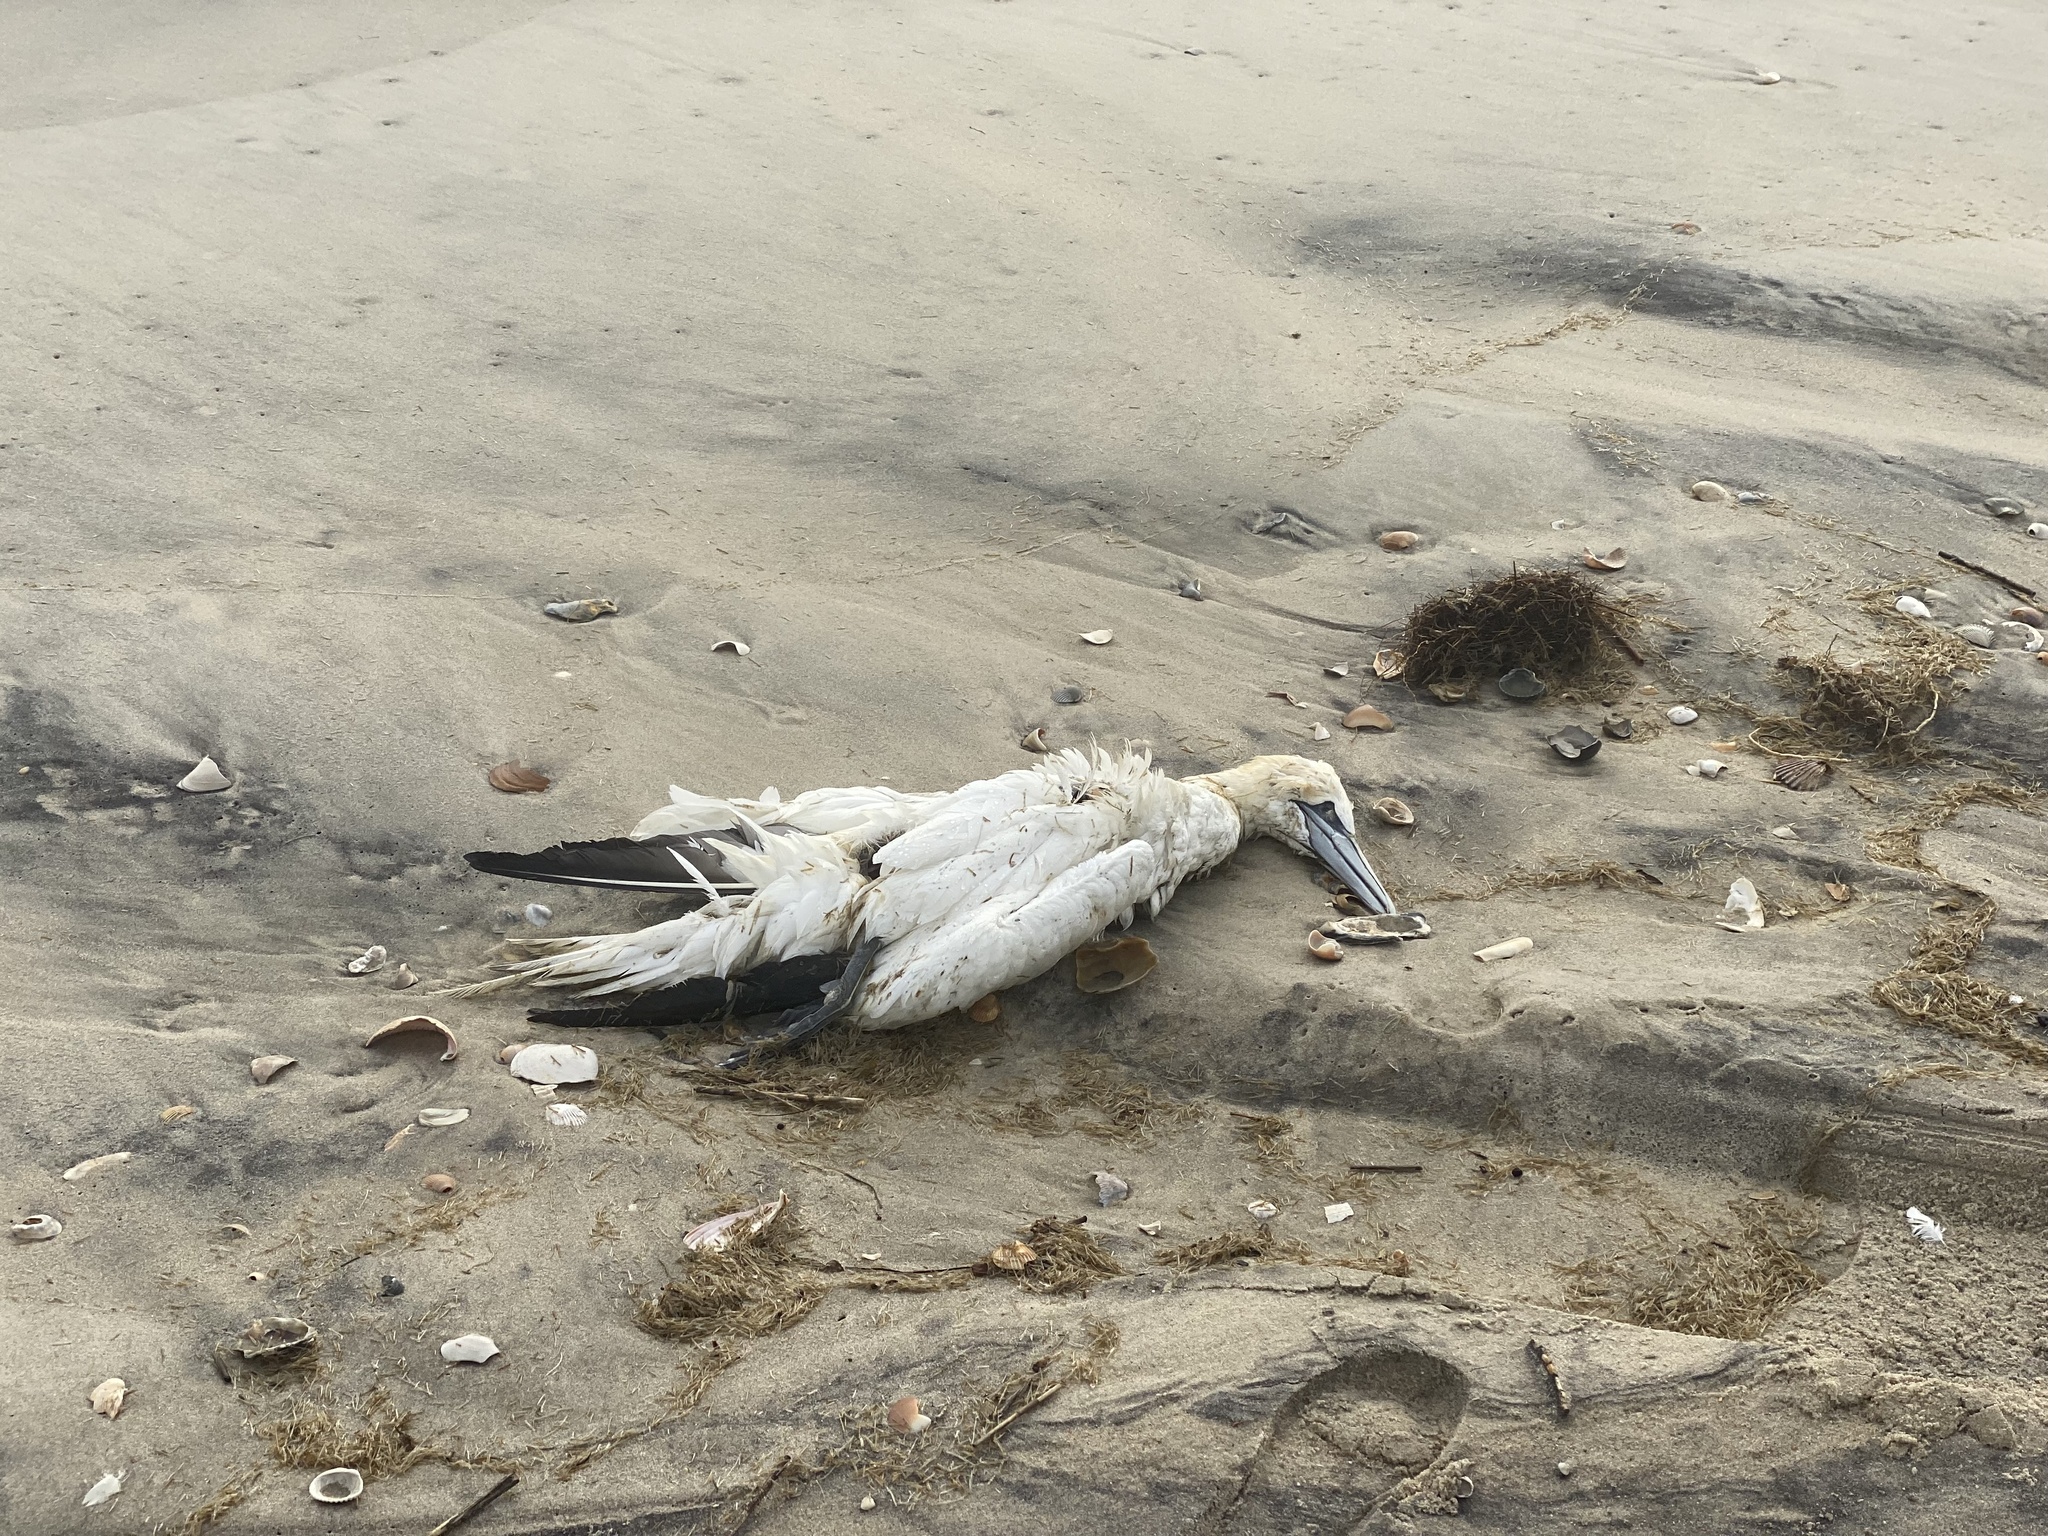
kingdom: Animalia
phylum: Chordata
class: Aves
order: Suliformes
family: Sulidae
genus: Morus
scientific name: Morus bassanus
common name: Northern gannet
